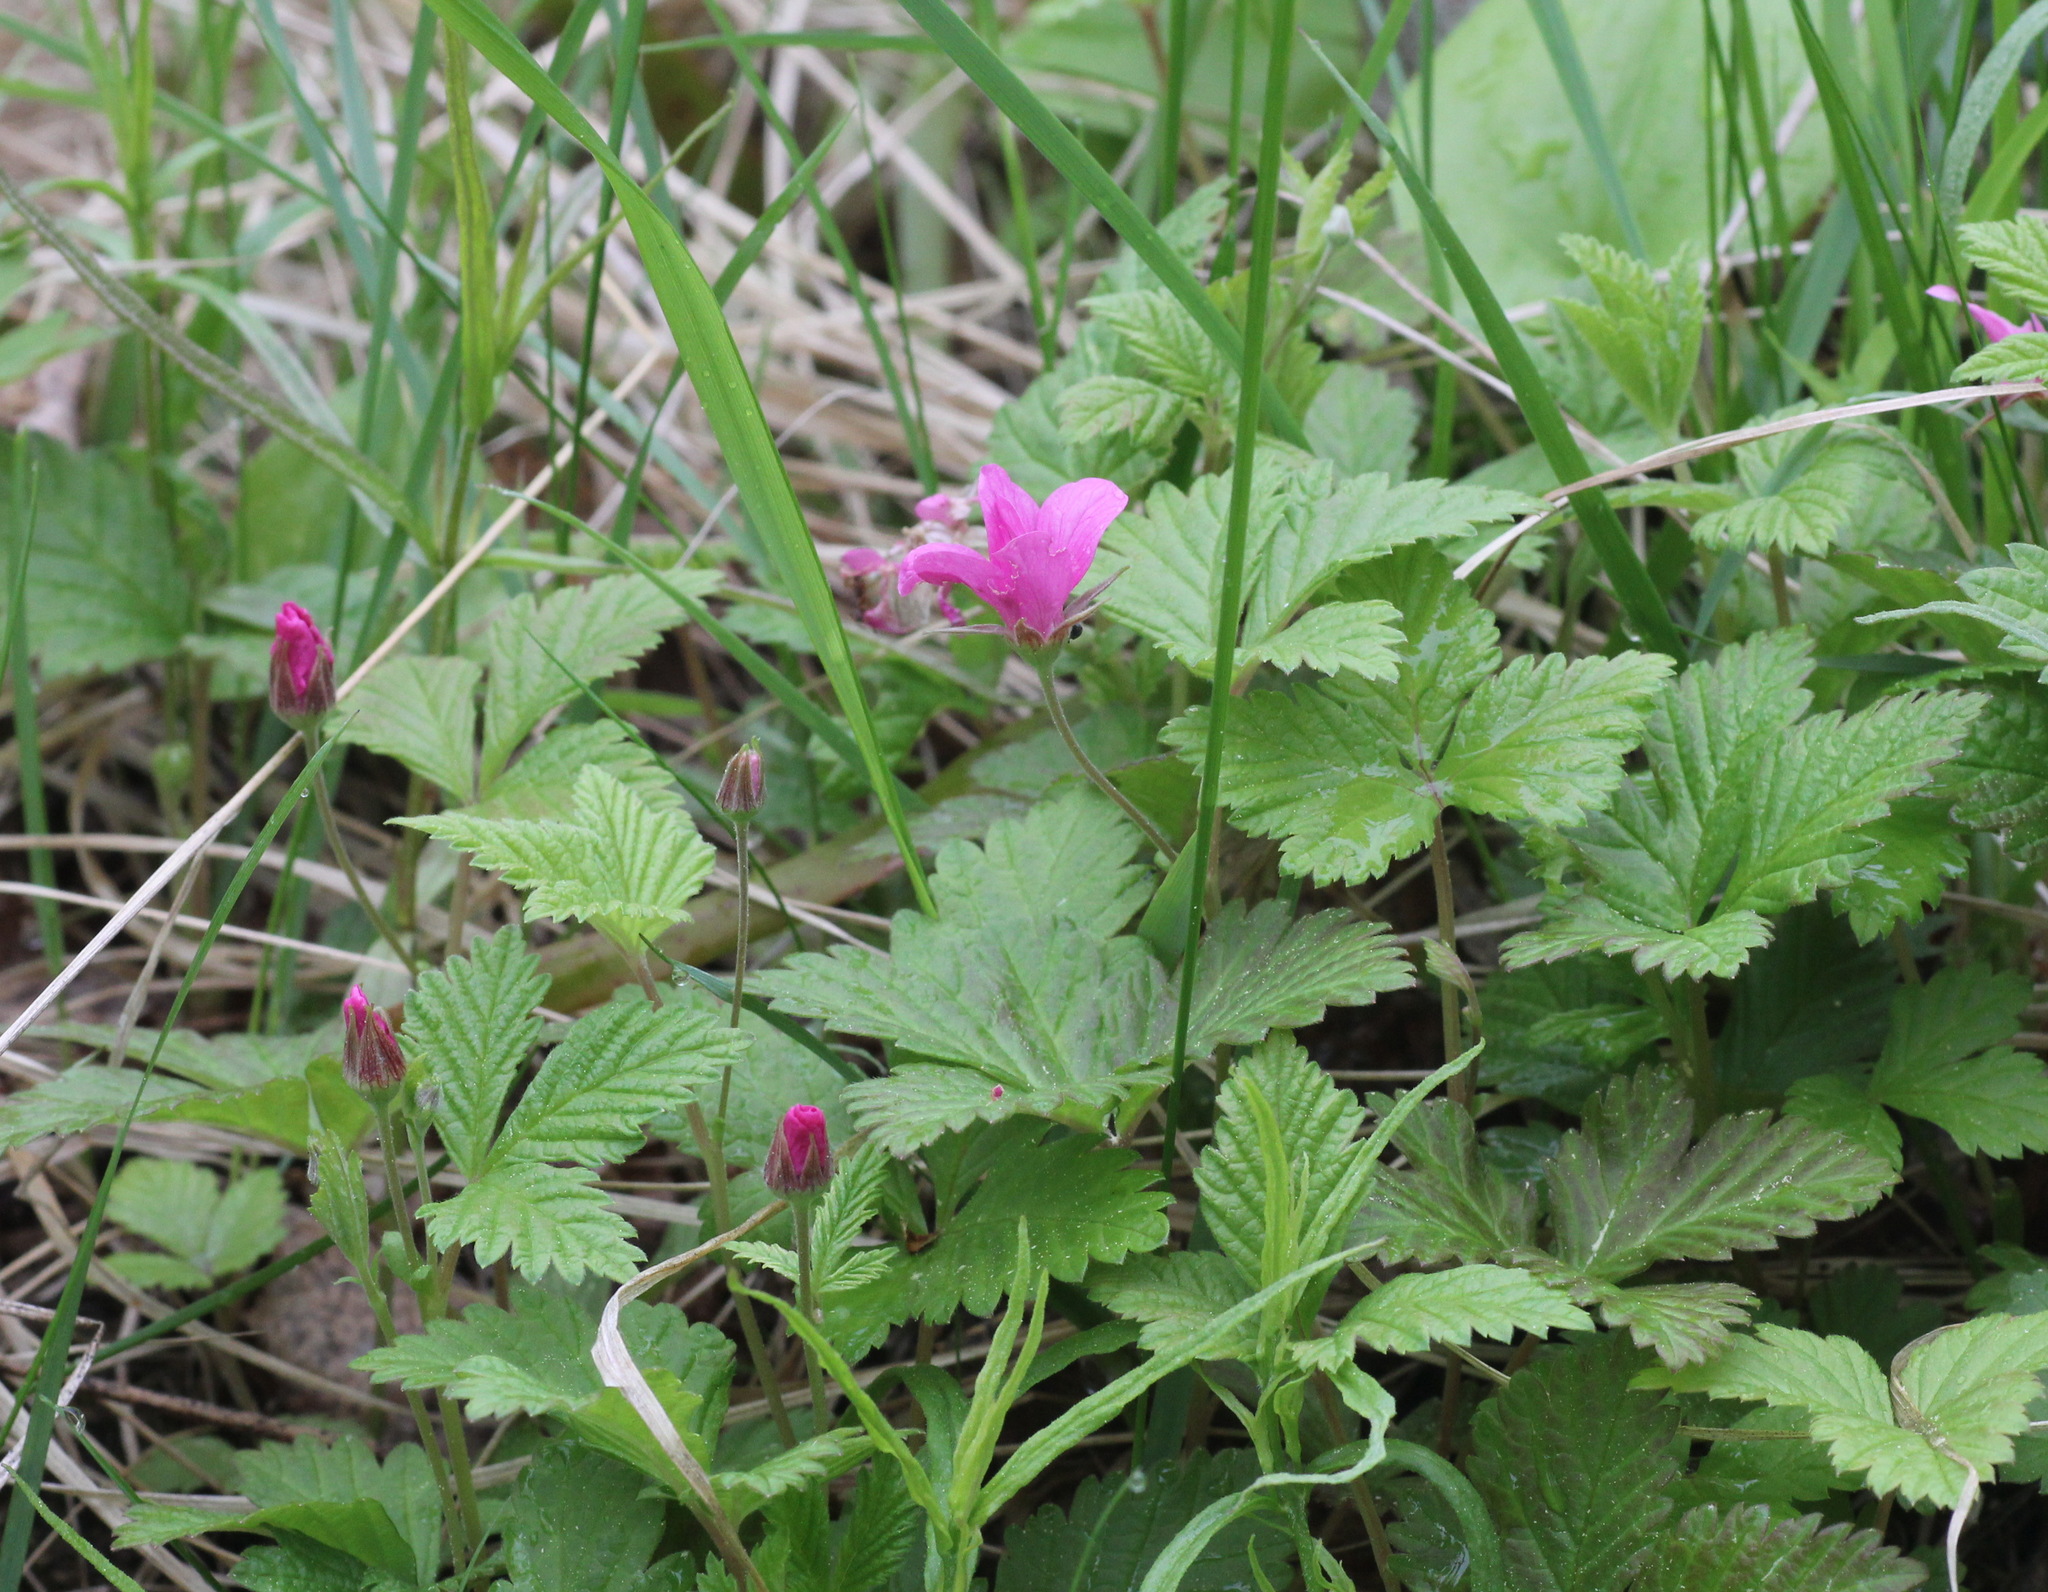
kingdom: Plantae
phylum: Tracheophyta
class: Magnoliopsida
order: Rosales
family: Rosaceae
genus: Rubus
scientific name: Rubus arcticus
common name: Arctic bramble
